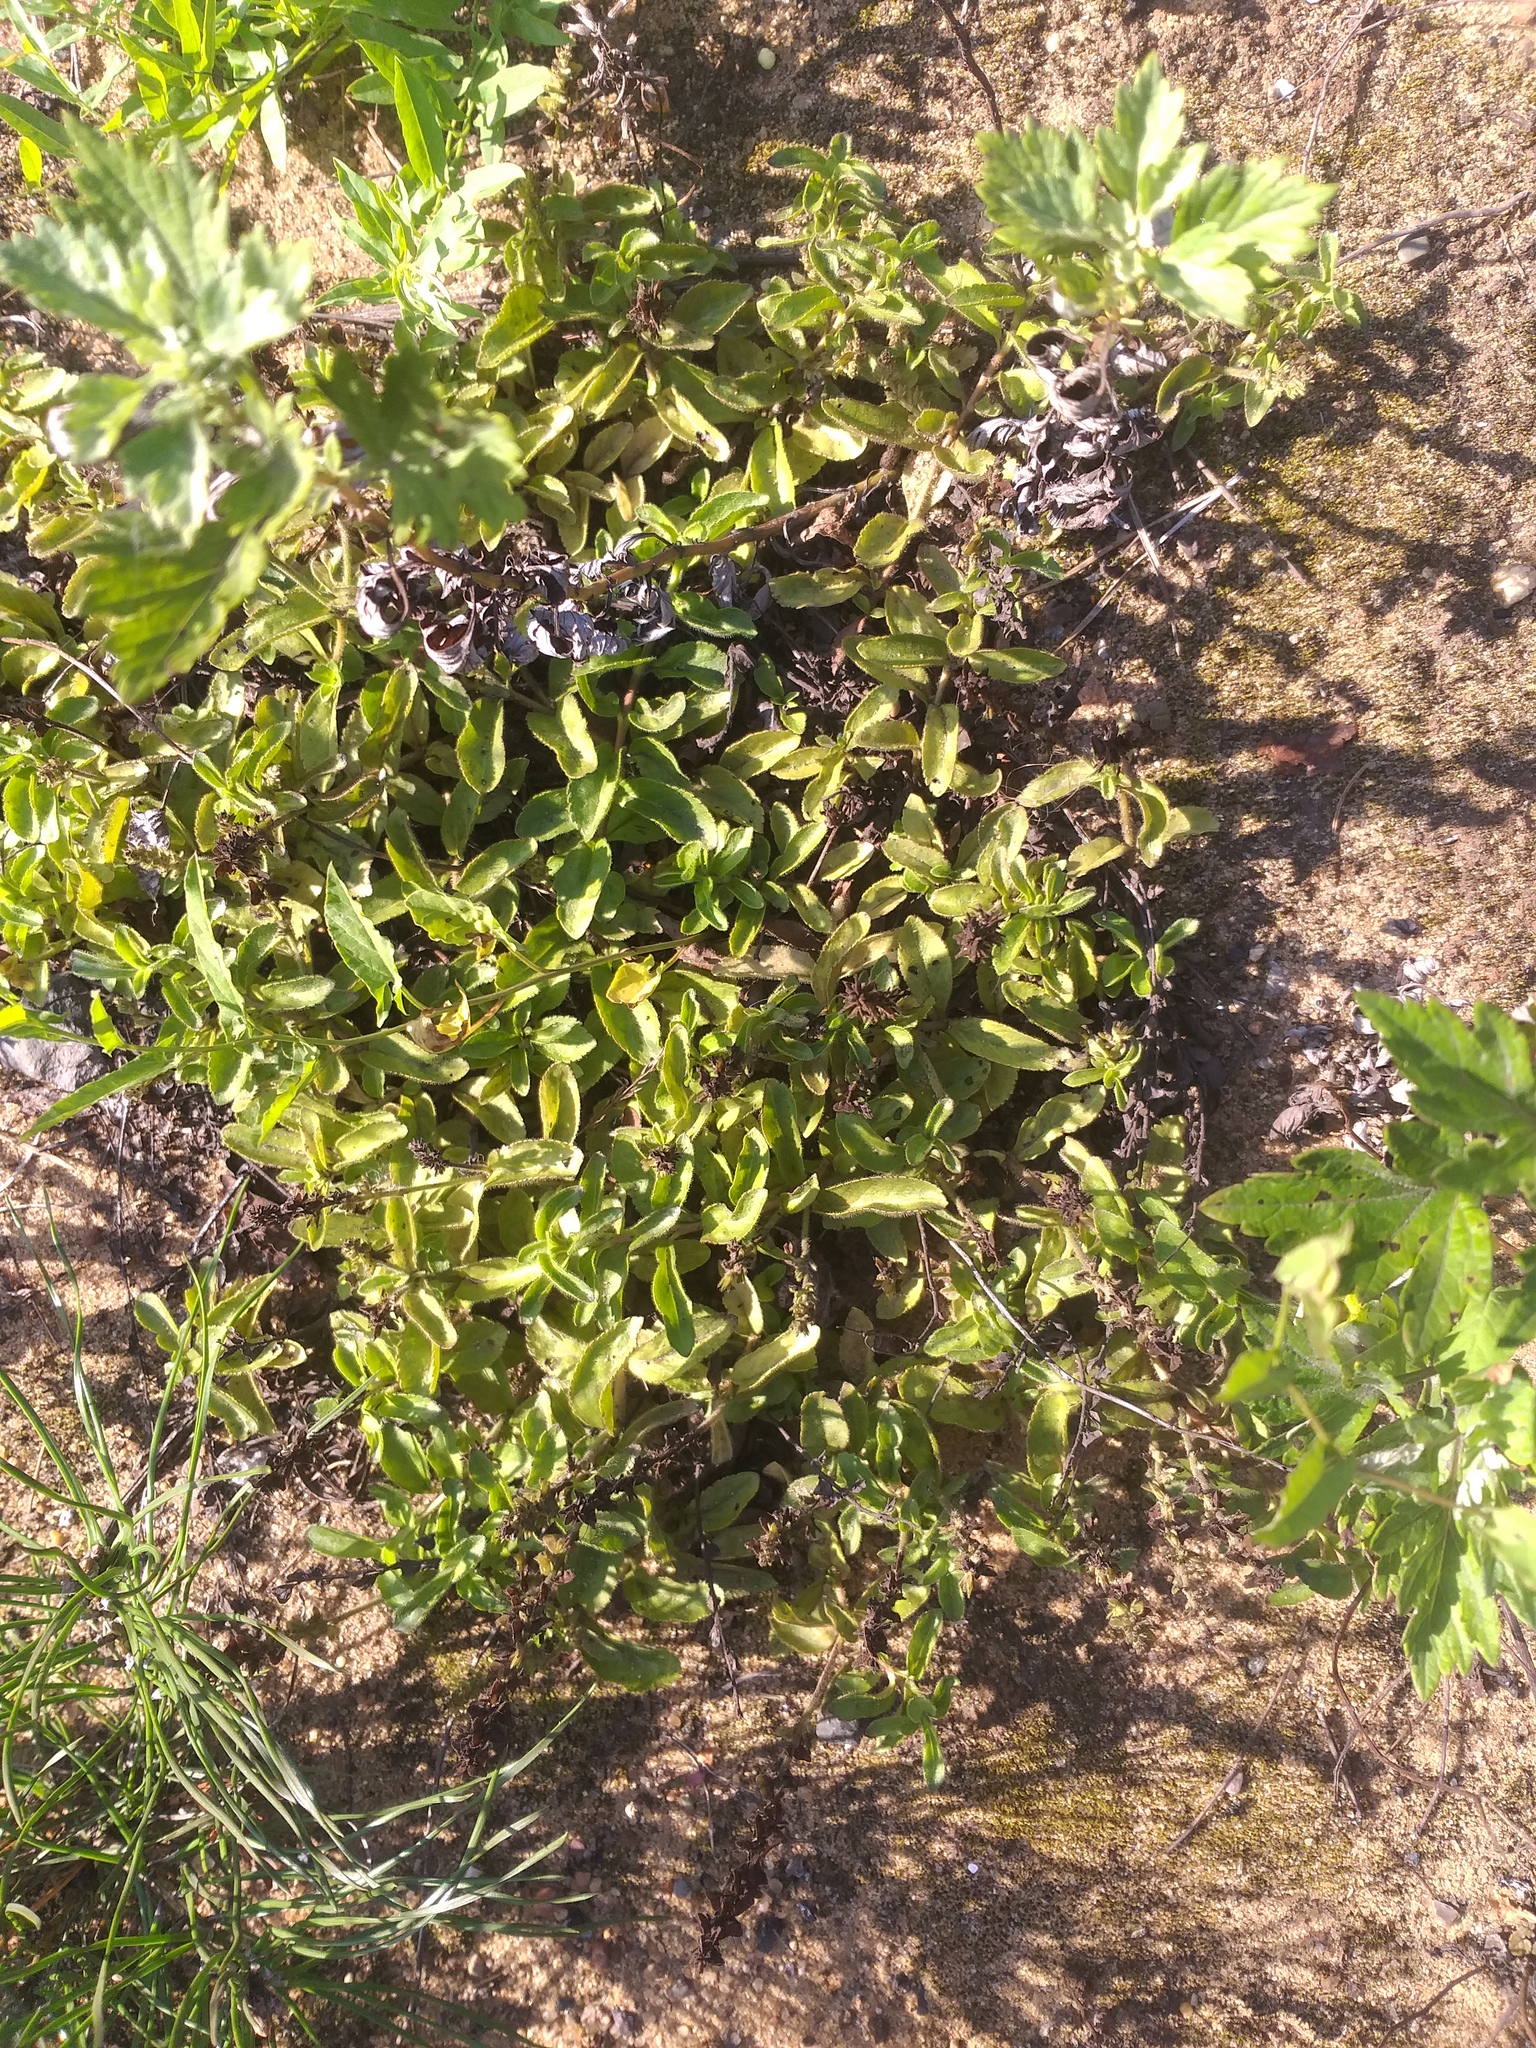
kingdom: Plantae
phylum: Tracheophyta
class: Magnoliopsida
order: Lamiales
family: Plantaginaceae
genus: Veronica
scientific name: Veronica officinalis
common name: Common speedwell
